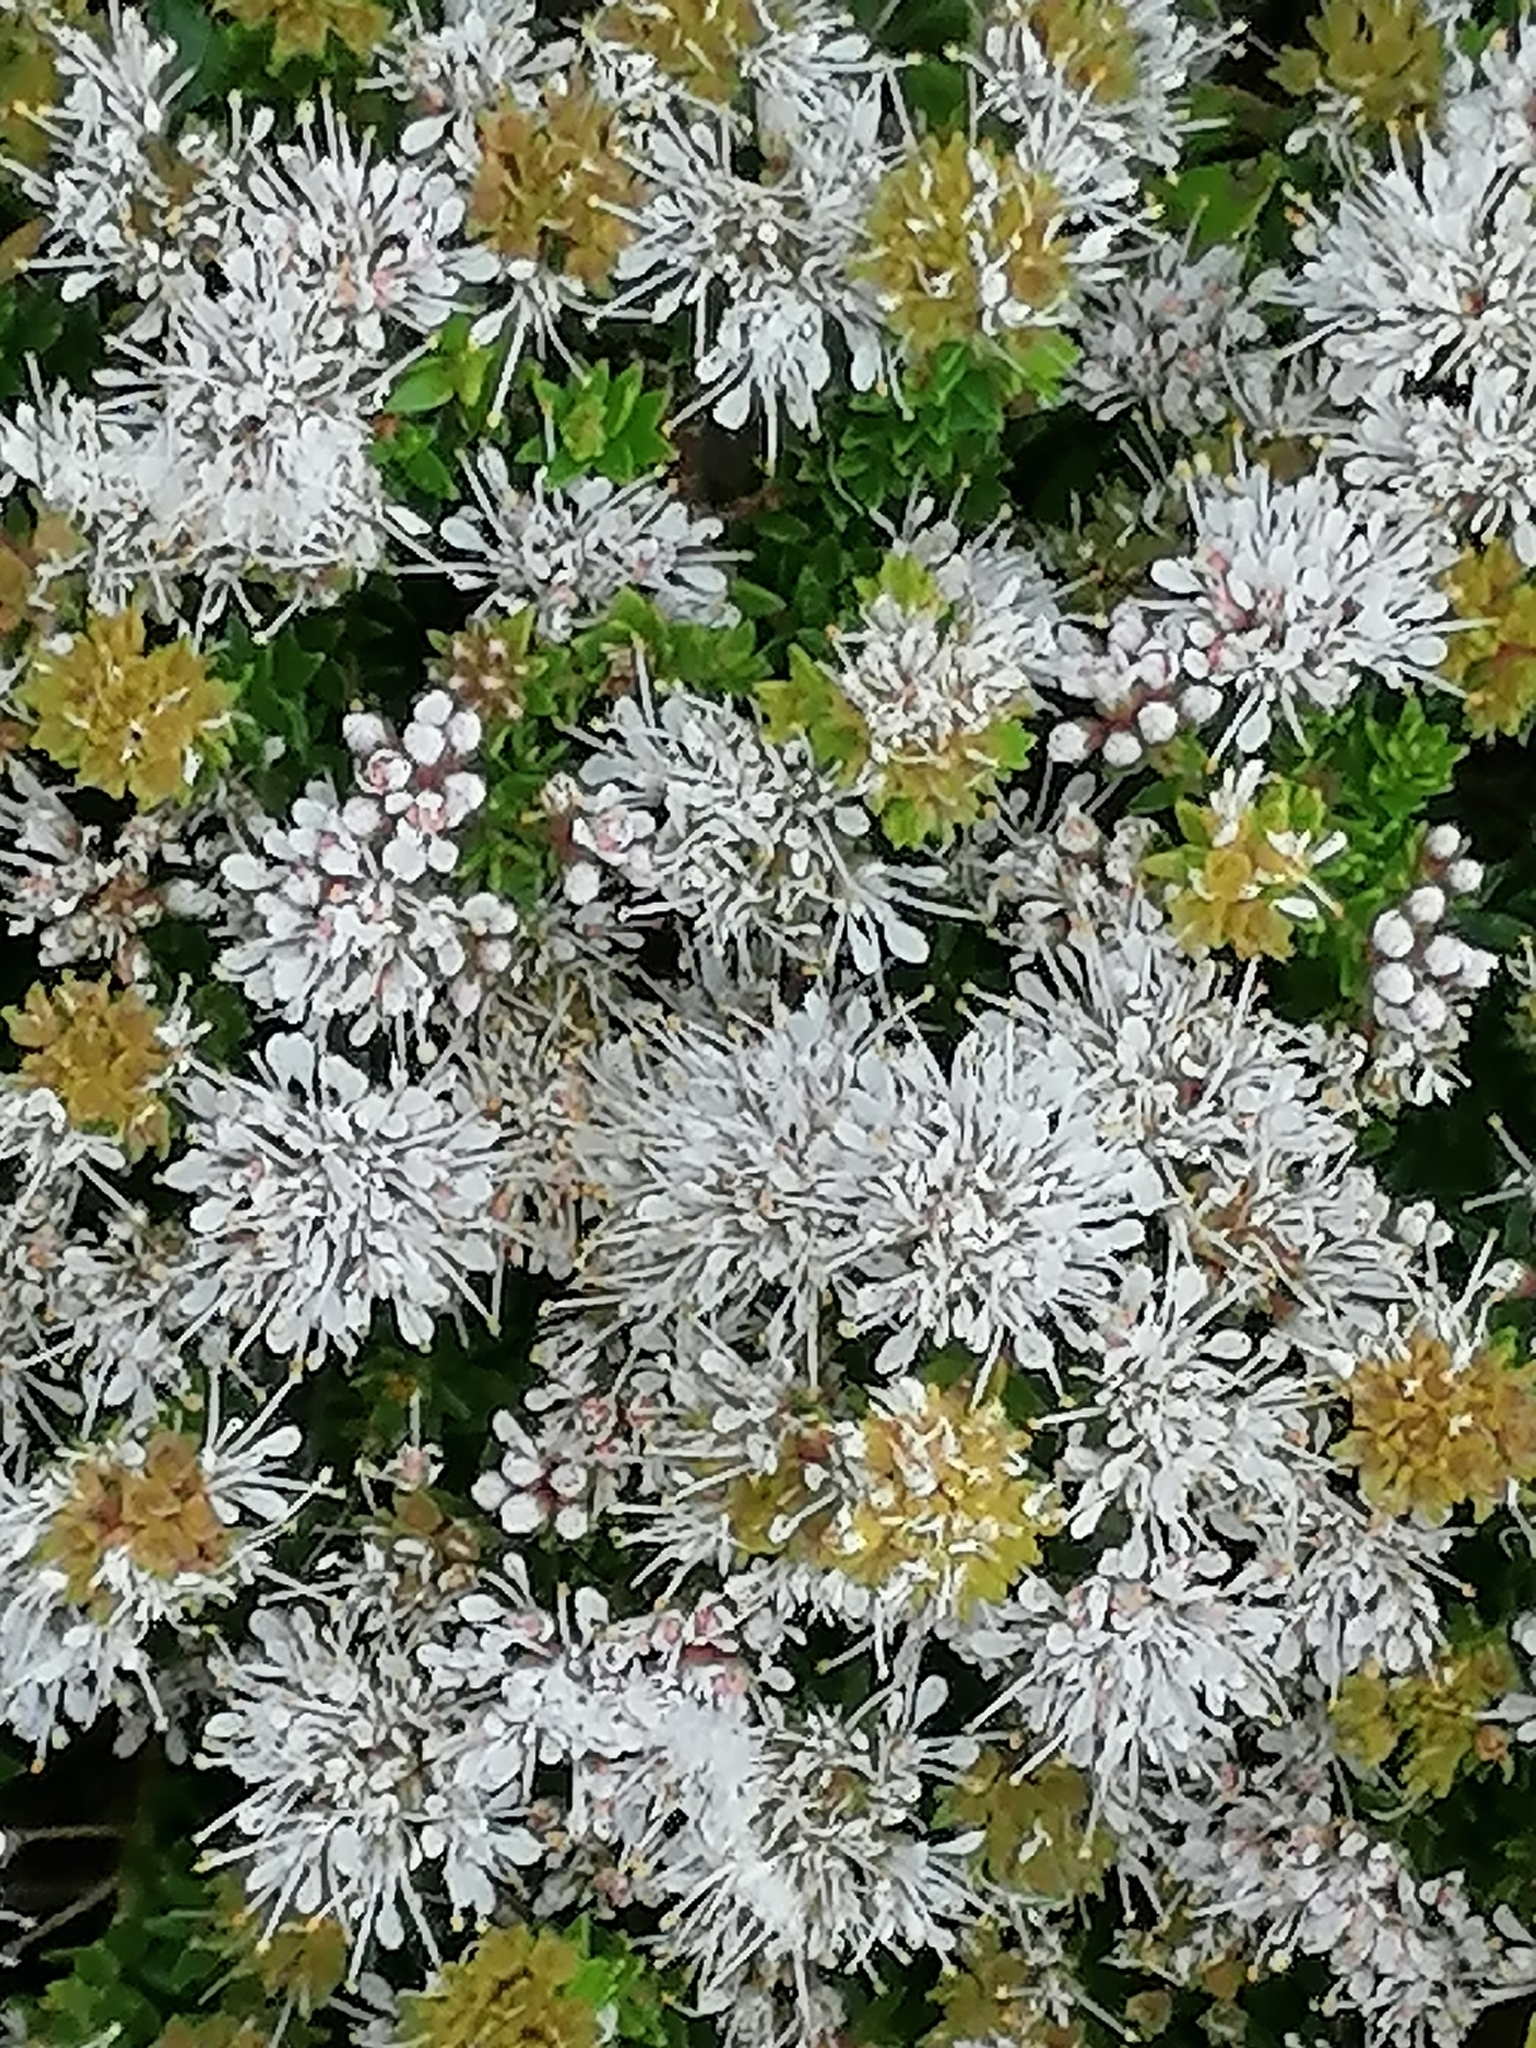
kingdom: Plantae
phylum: Tracheophyta
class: Magnoliopsida
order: Sapindales
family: Rutaceae
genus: Agathosma
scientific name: Agathosma capensis
